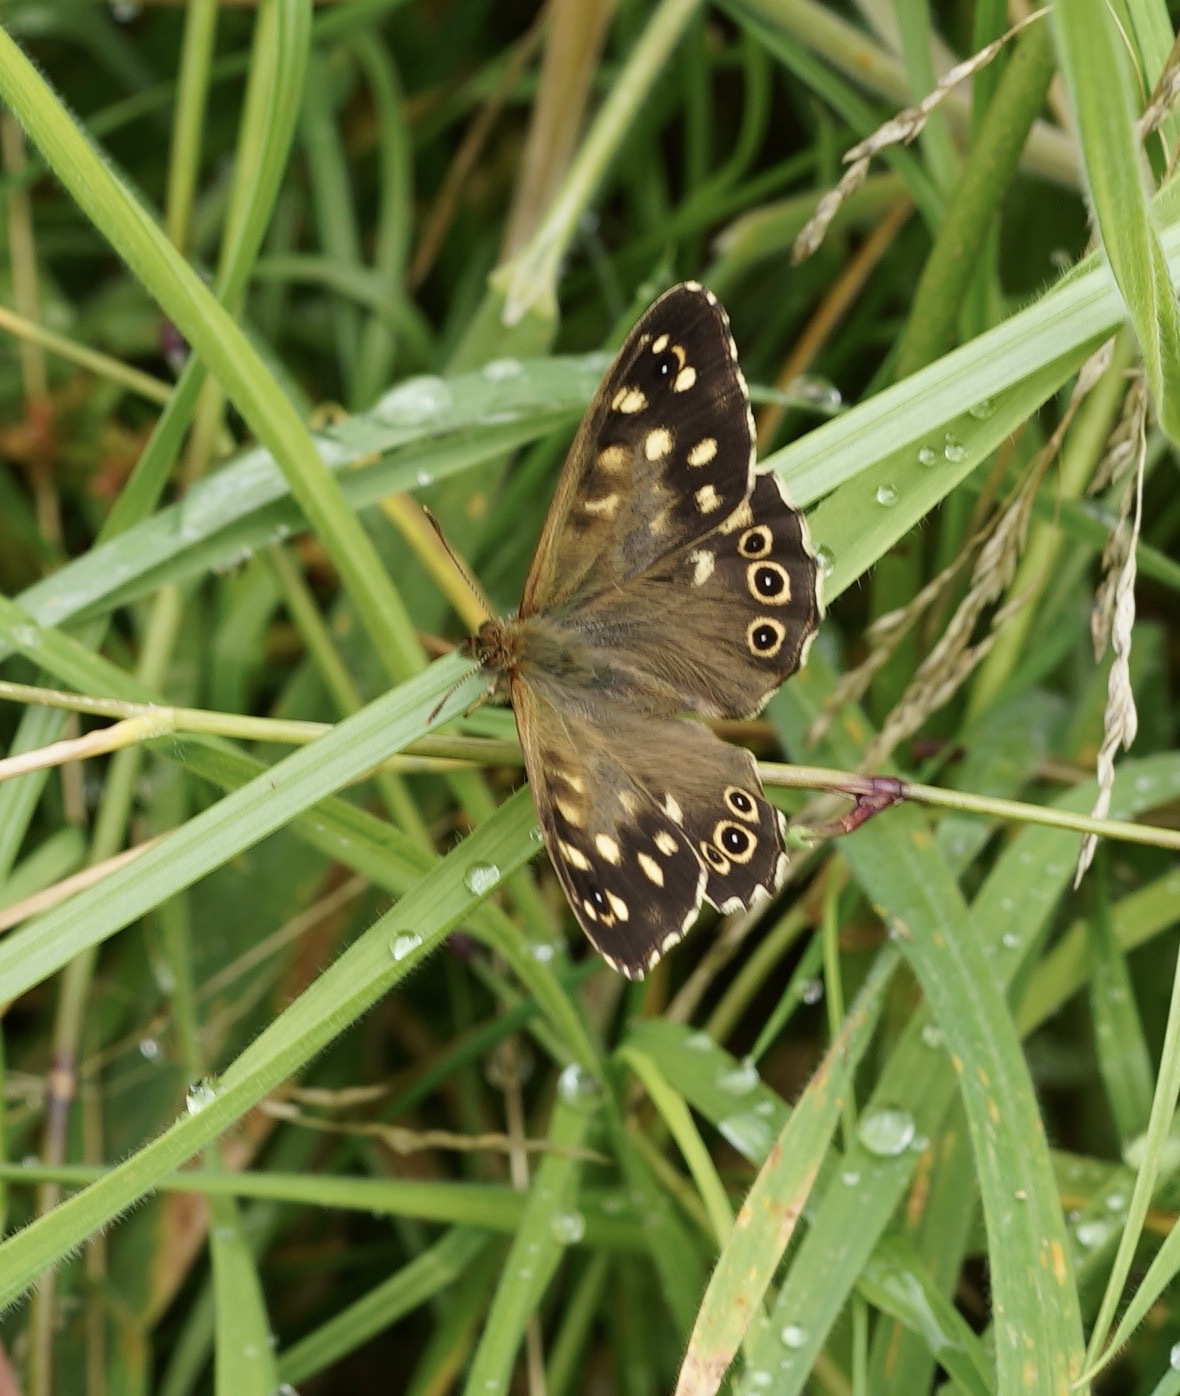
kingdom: Animalia
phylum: Arthropoda
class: Insecta
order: Lepidoptera
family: Nymphalidae
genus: Pararge
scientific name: Pararge aegeria
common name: Speckled wood
